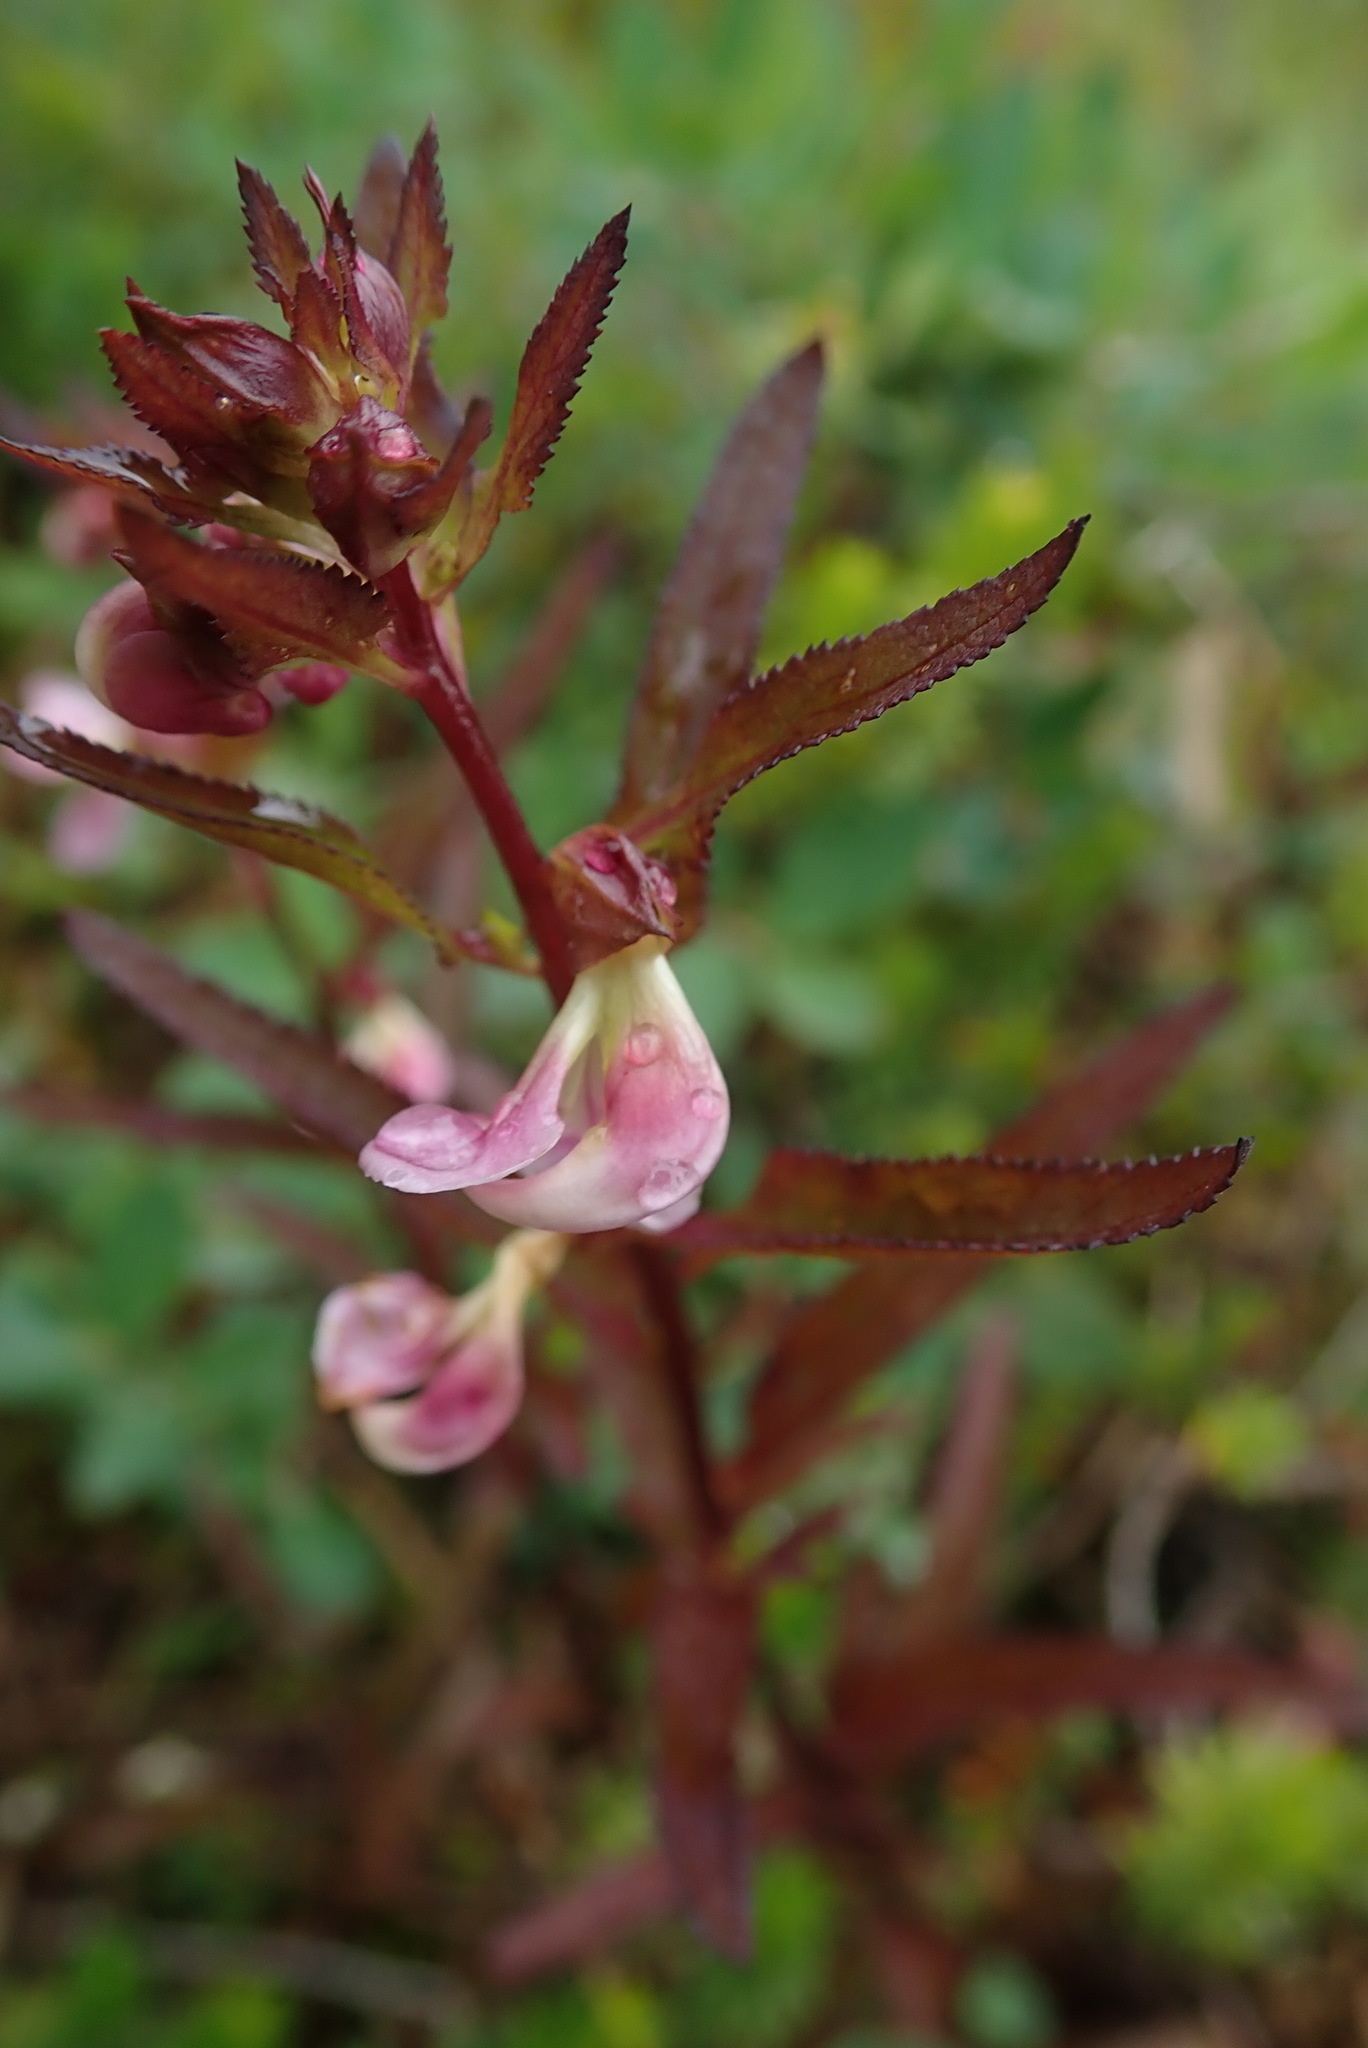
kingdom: Plantae
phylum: Tracheophyta
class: Magnoliopsida
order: Lamiales
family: Orobanchaceae
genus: Pedicularis
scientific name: Pedicularis racemosa
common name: Leafy lousewort
